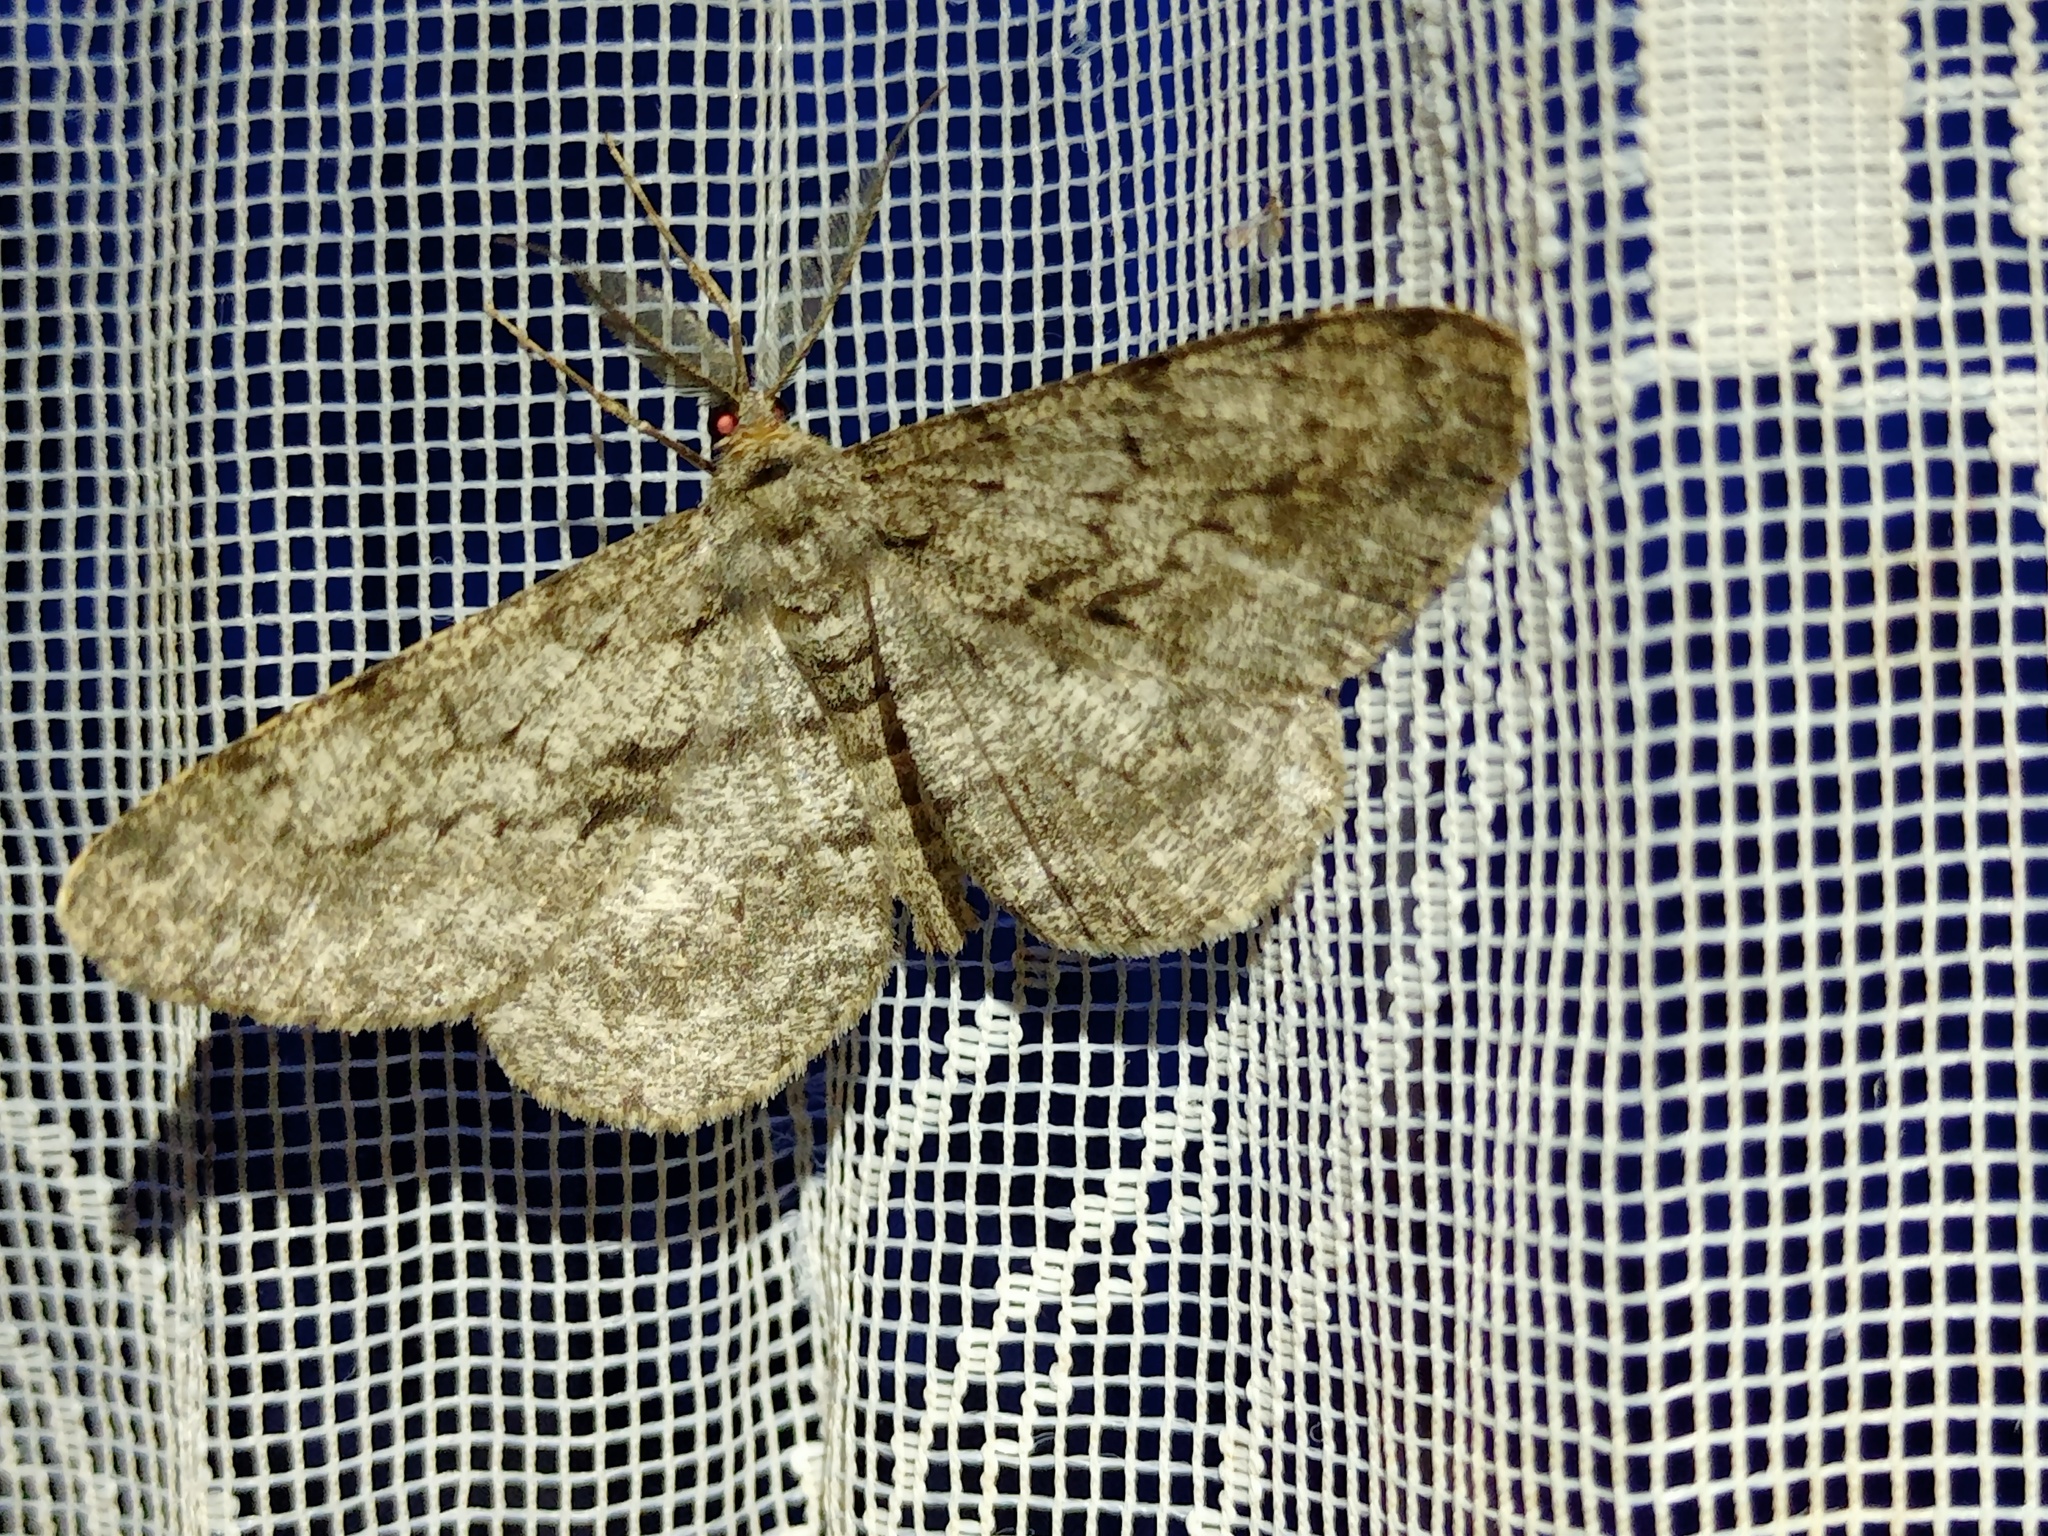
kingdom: Animalia
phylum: Arthropoda
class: Insecta
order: Lepidoptera
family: Geometridae
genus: Hypomecis
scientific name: Hypomecis roboraria
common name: Great oak beauty
